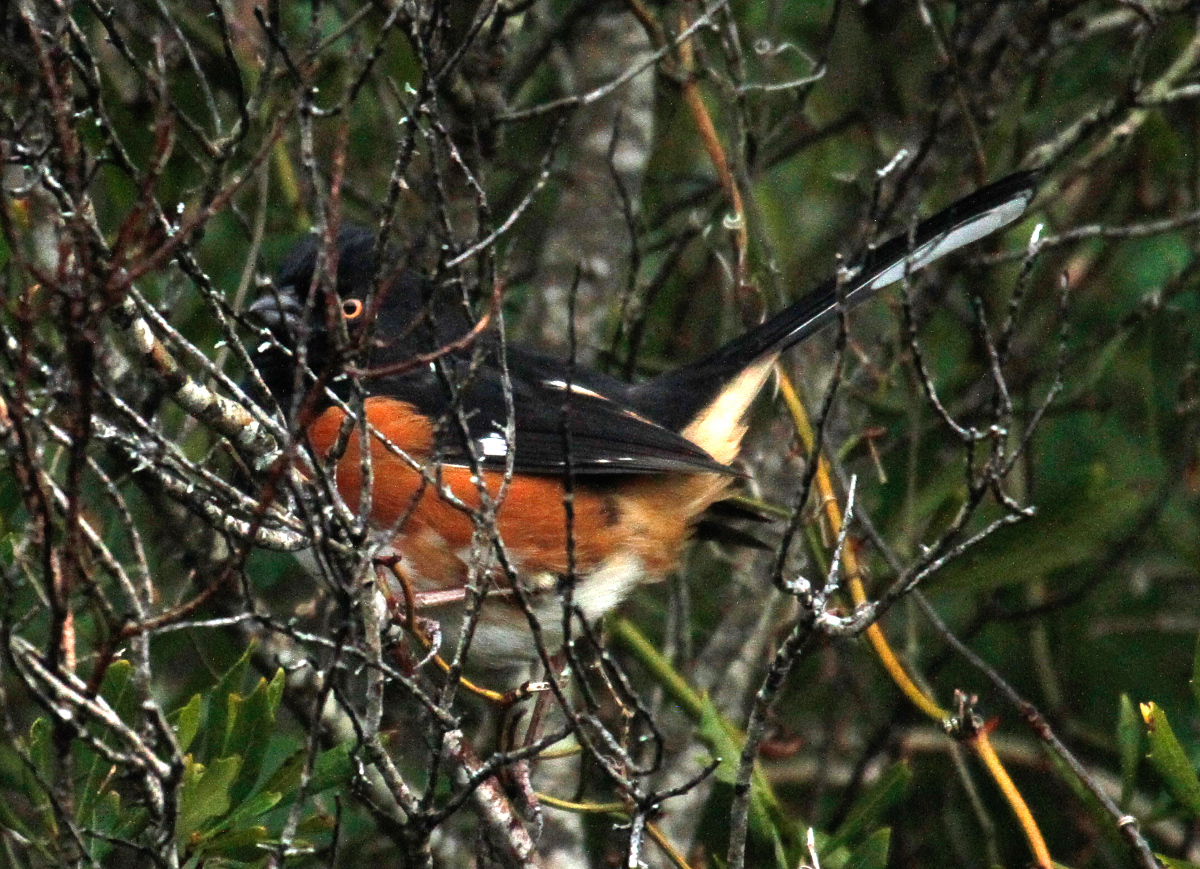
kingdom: Animalia
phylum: Chordata
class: Aves
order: Passeriformes
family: Passerellidae
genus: Pipilo
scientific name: Pipilo erythrophthalmus
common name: Eastern towhee
